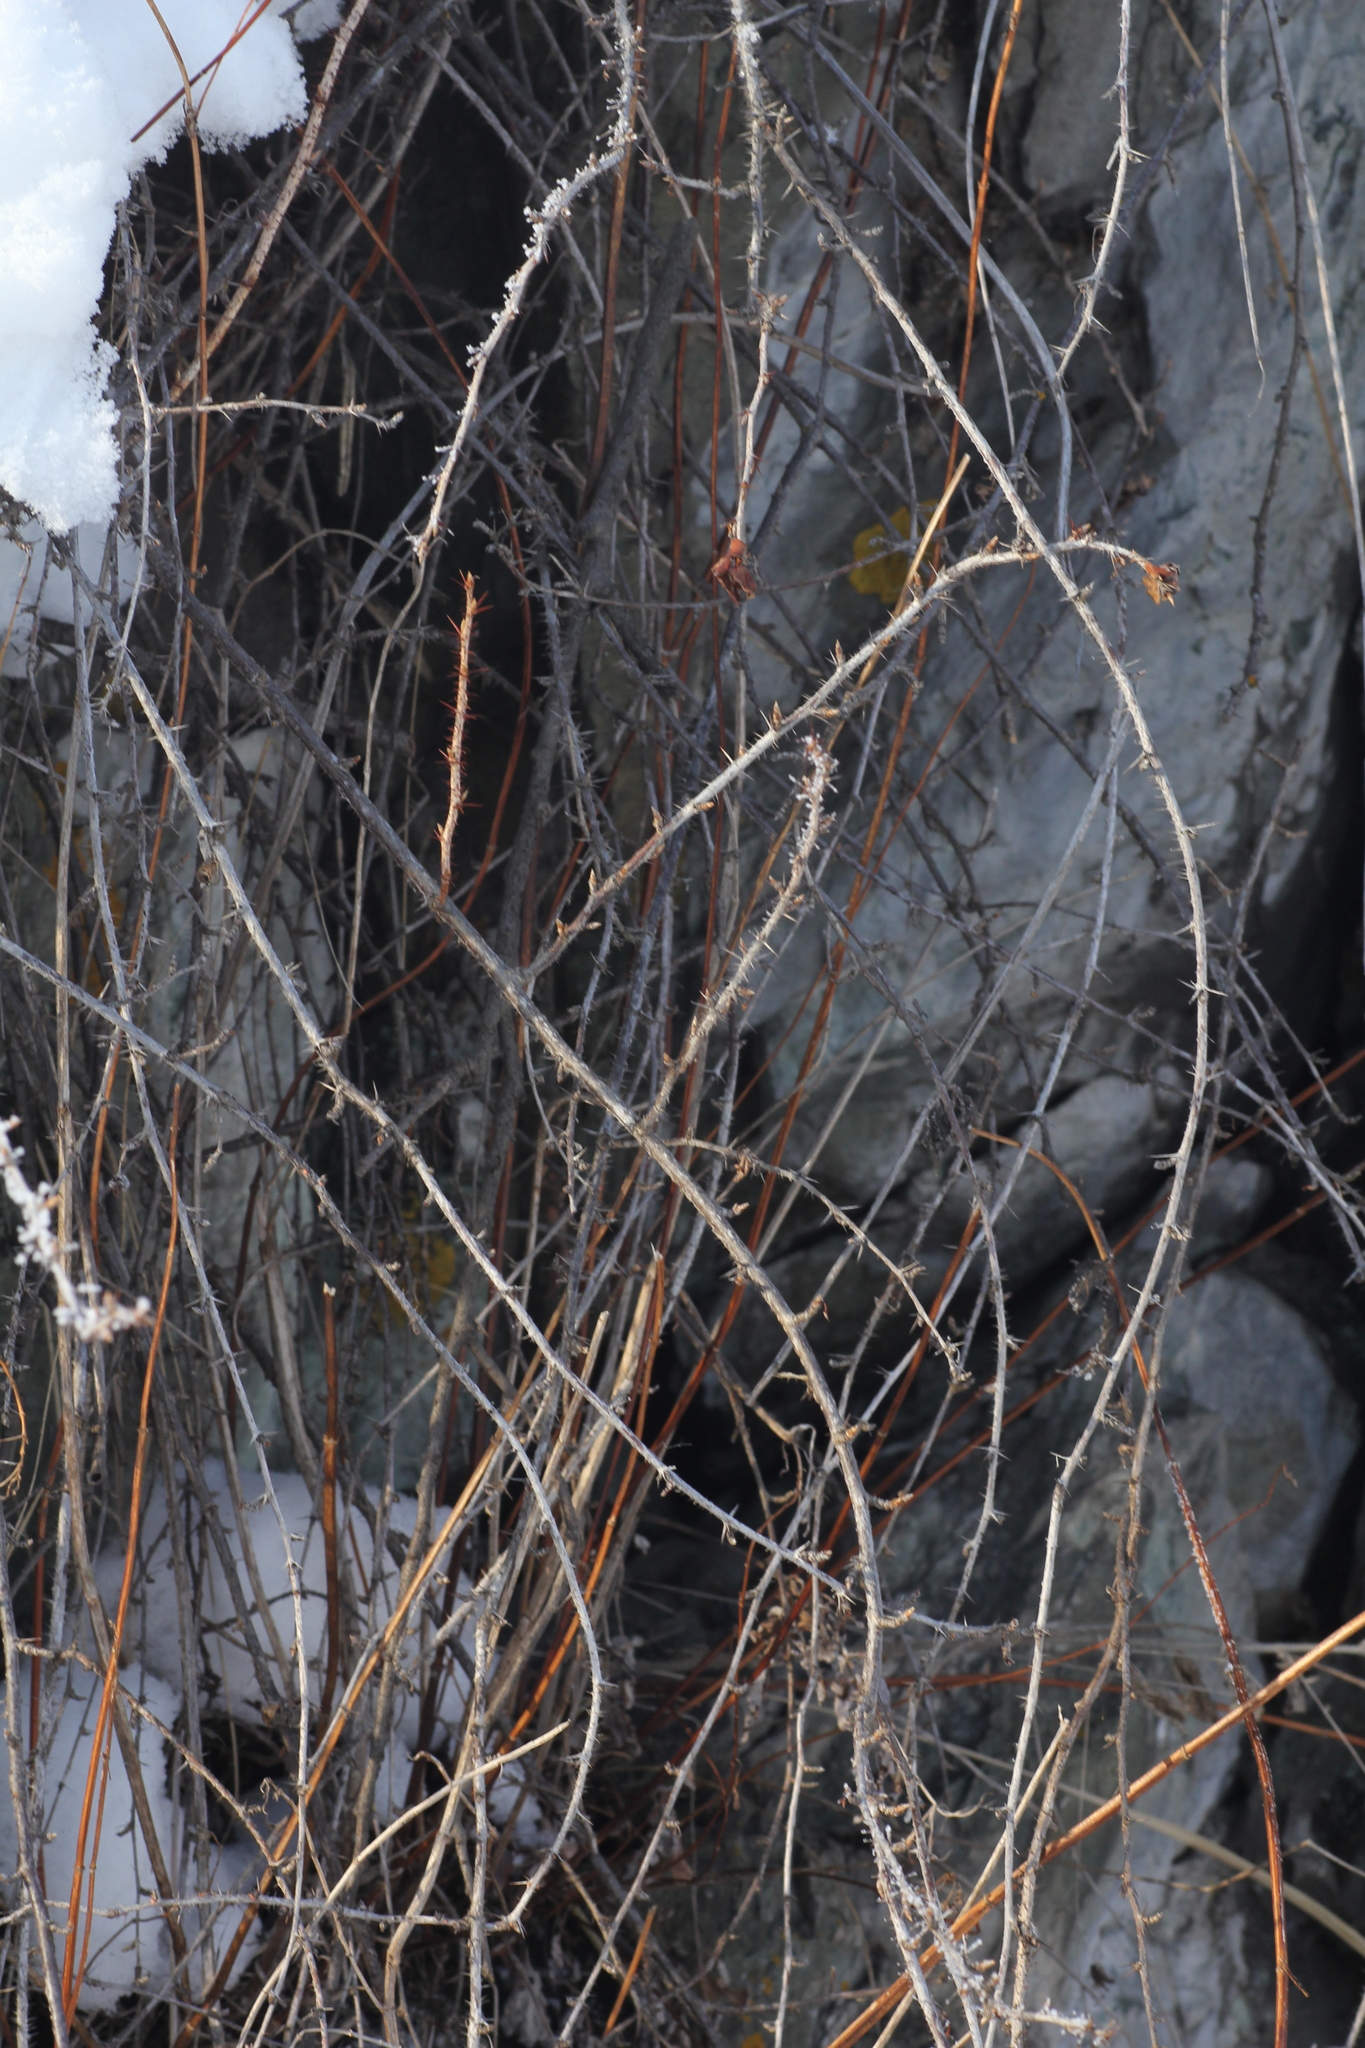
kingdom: Plantae
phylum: Tracheophyta
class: Magnoliopsida
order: Saxifragales
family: Grossulariaceae
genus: Ribes
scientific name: Ribes aciculare
